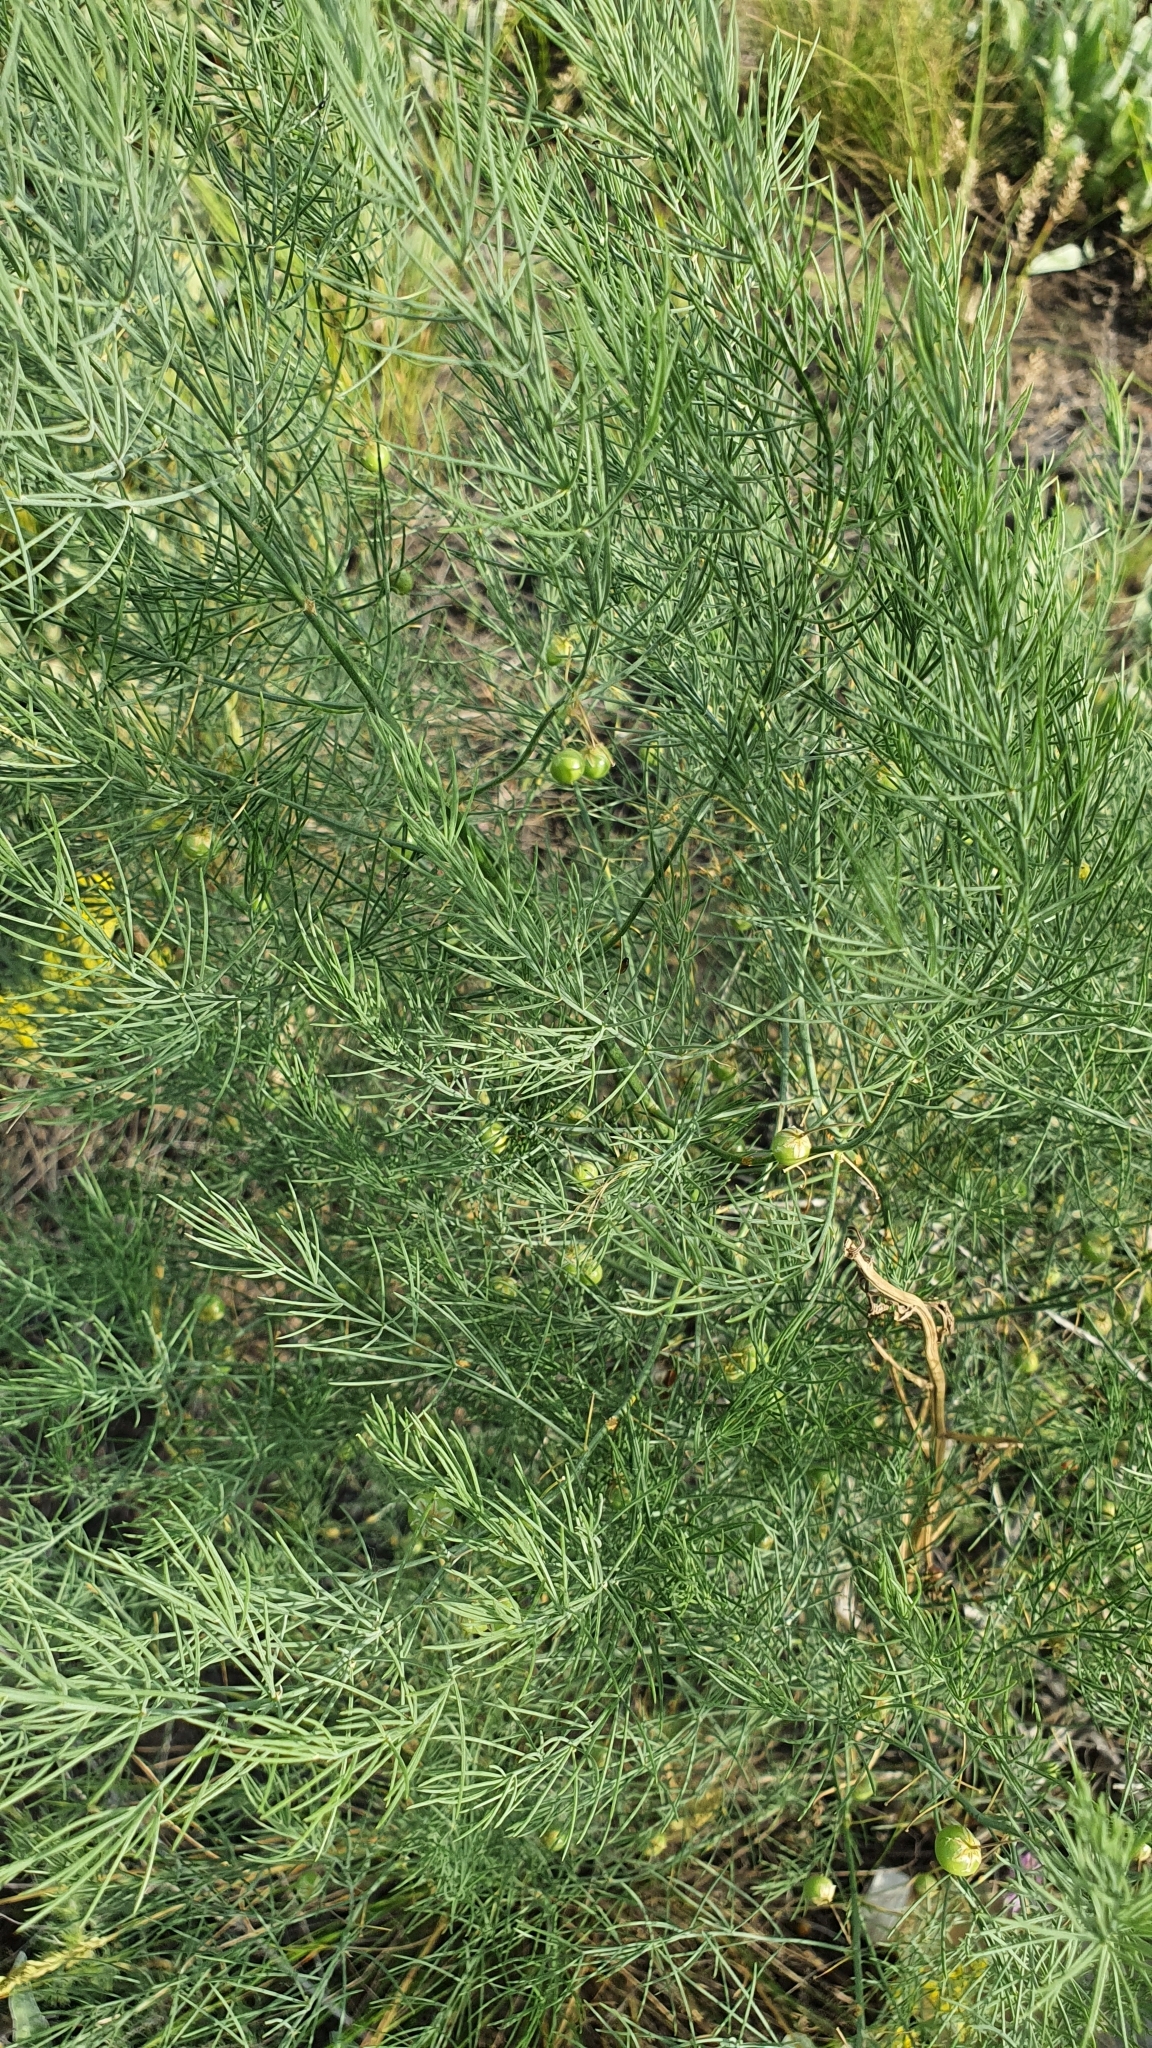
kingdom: Plantae
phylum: Tracheophyta
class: Liliopsida
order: Asparagales
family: Asparagaceae
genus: Asparagus
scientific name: Asparagus officinalis
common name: Garden asparagus
